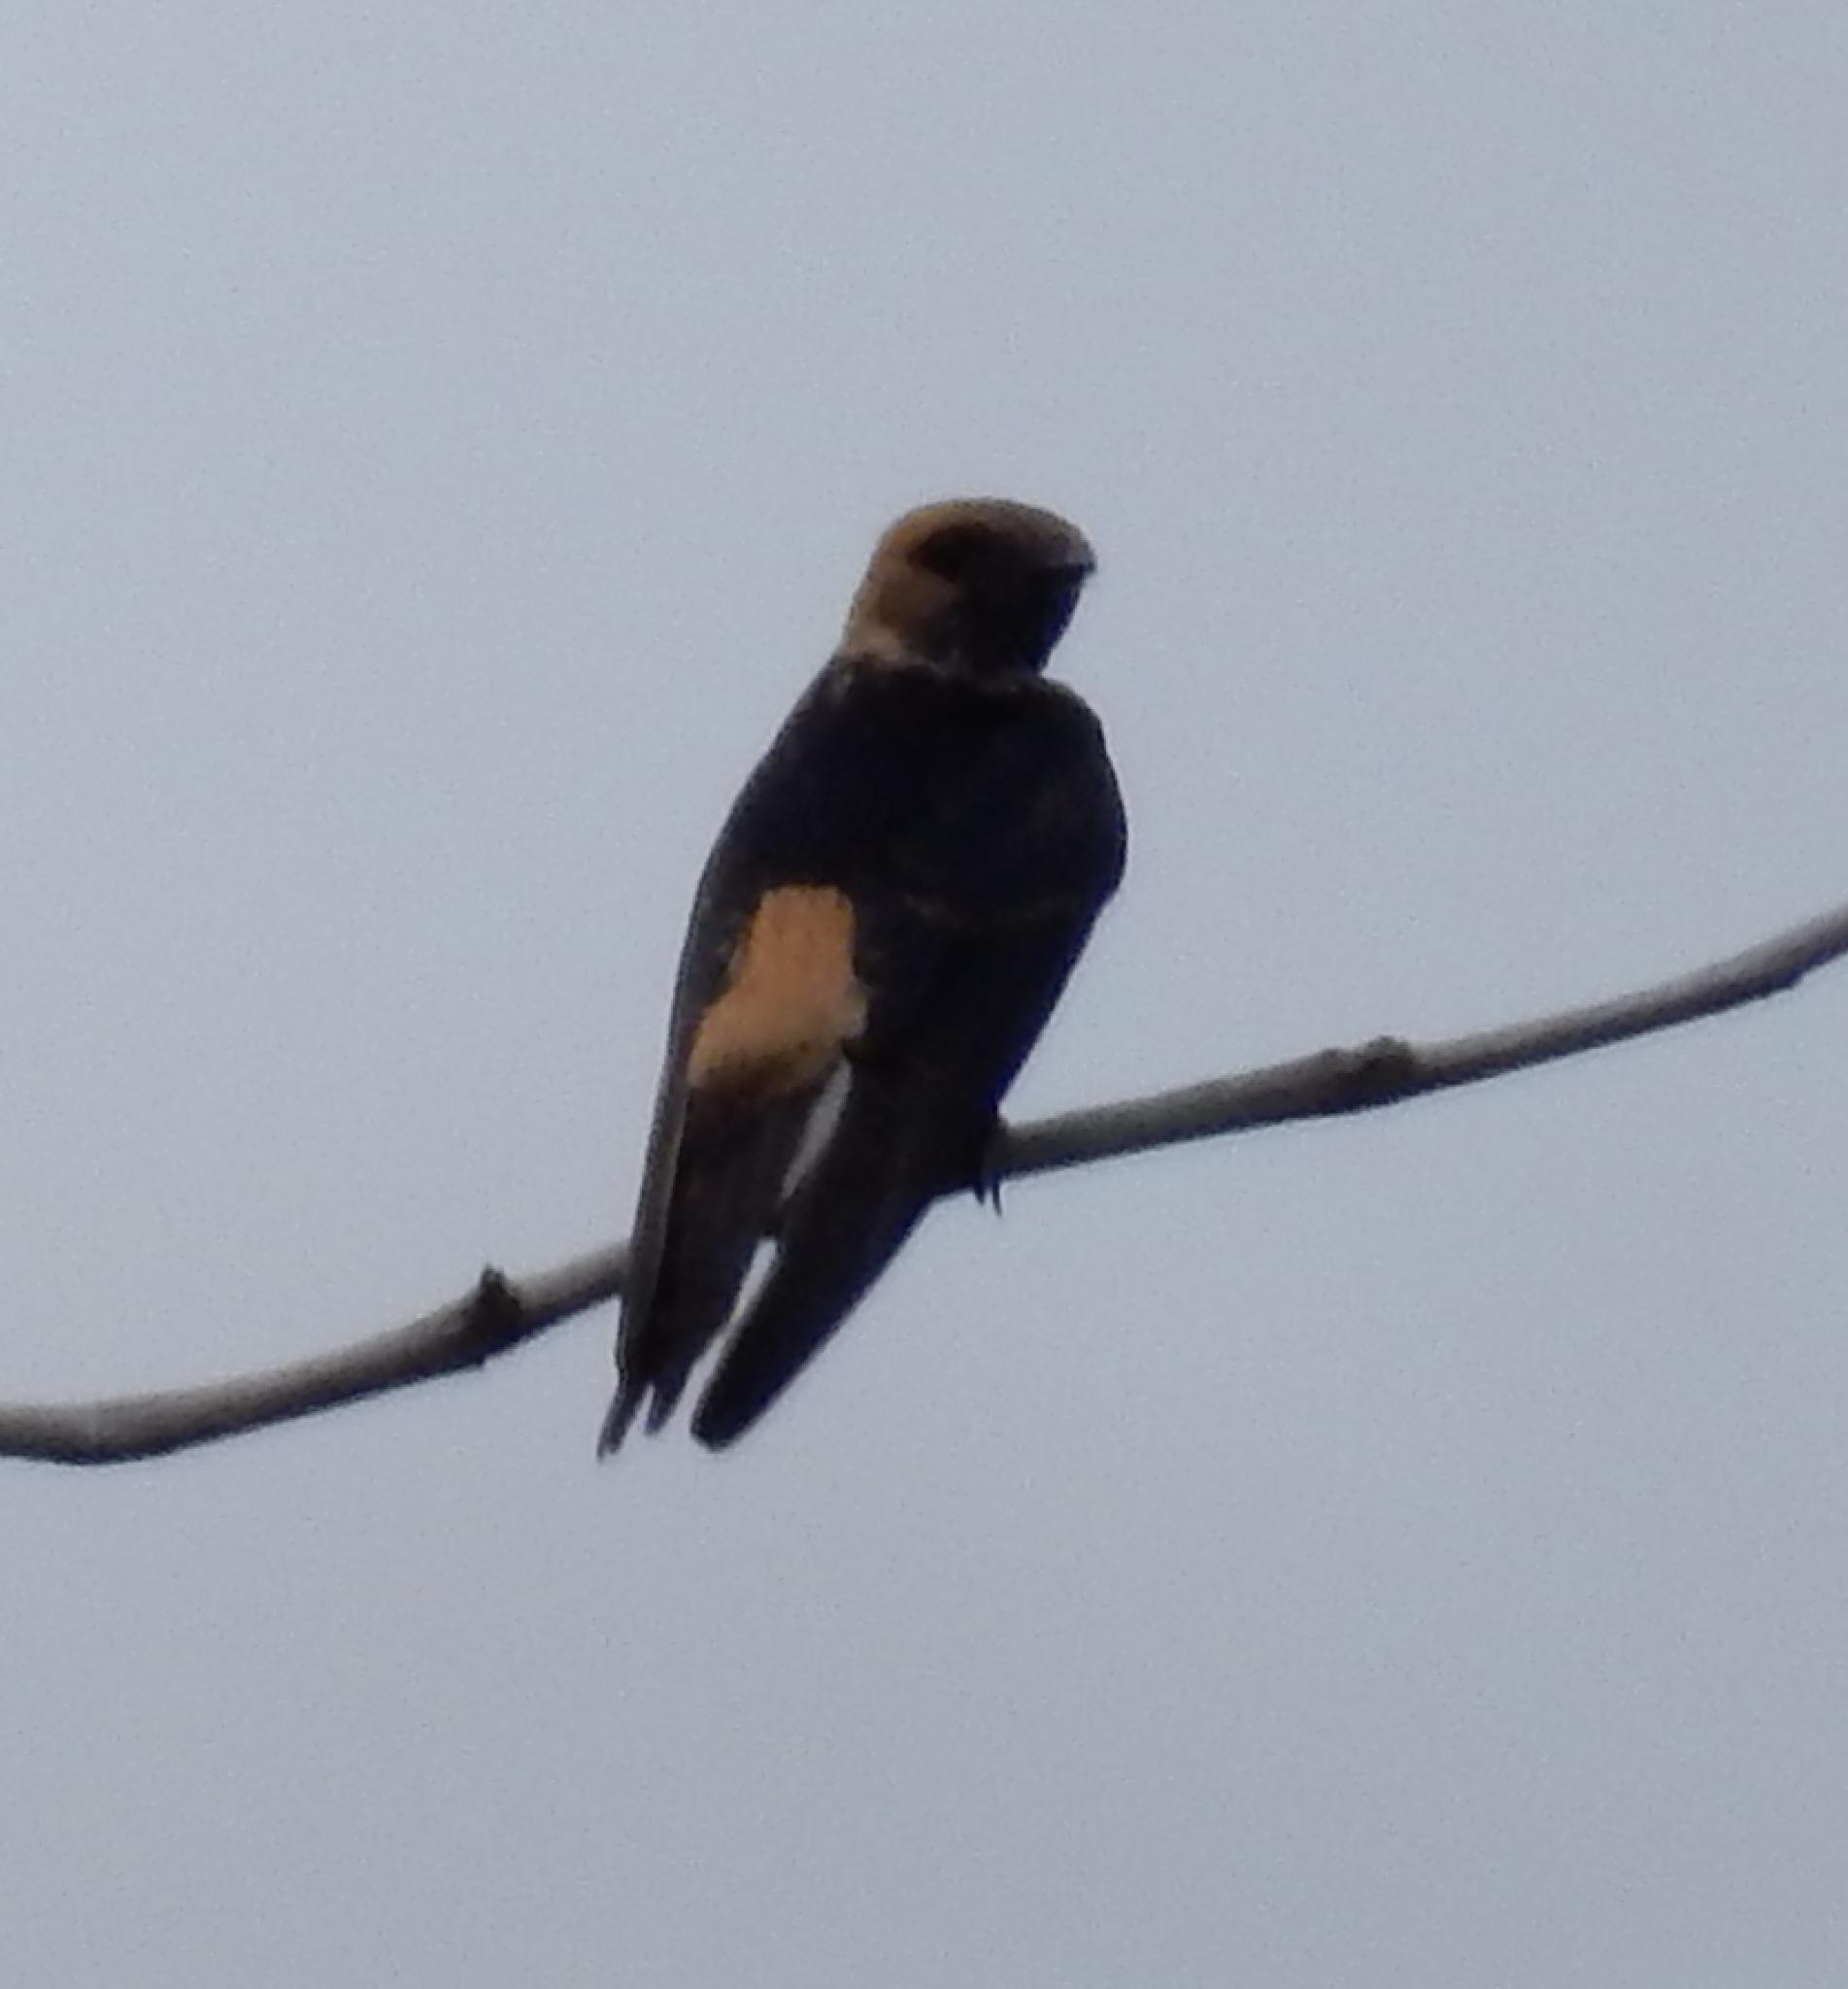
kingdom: Animalia
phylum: Chordata
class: Aves
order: Passeriformes
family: Hirundinidae
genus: Cecropis
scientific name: Cecropis abyssinica
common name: Lesser striped-swallow
